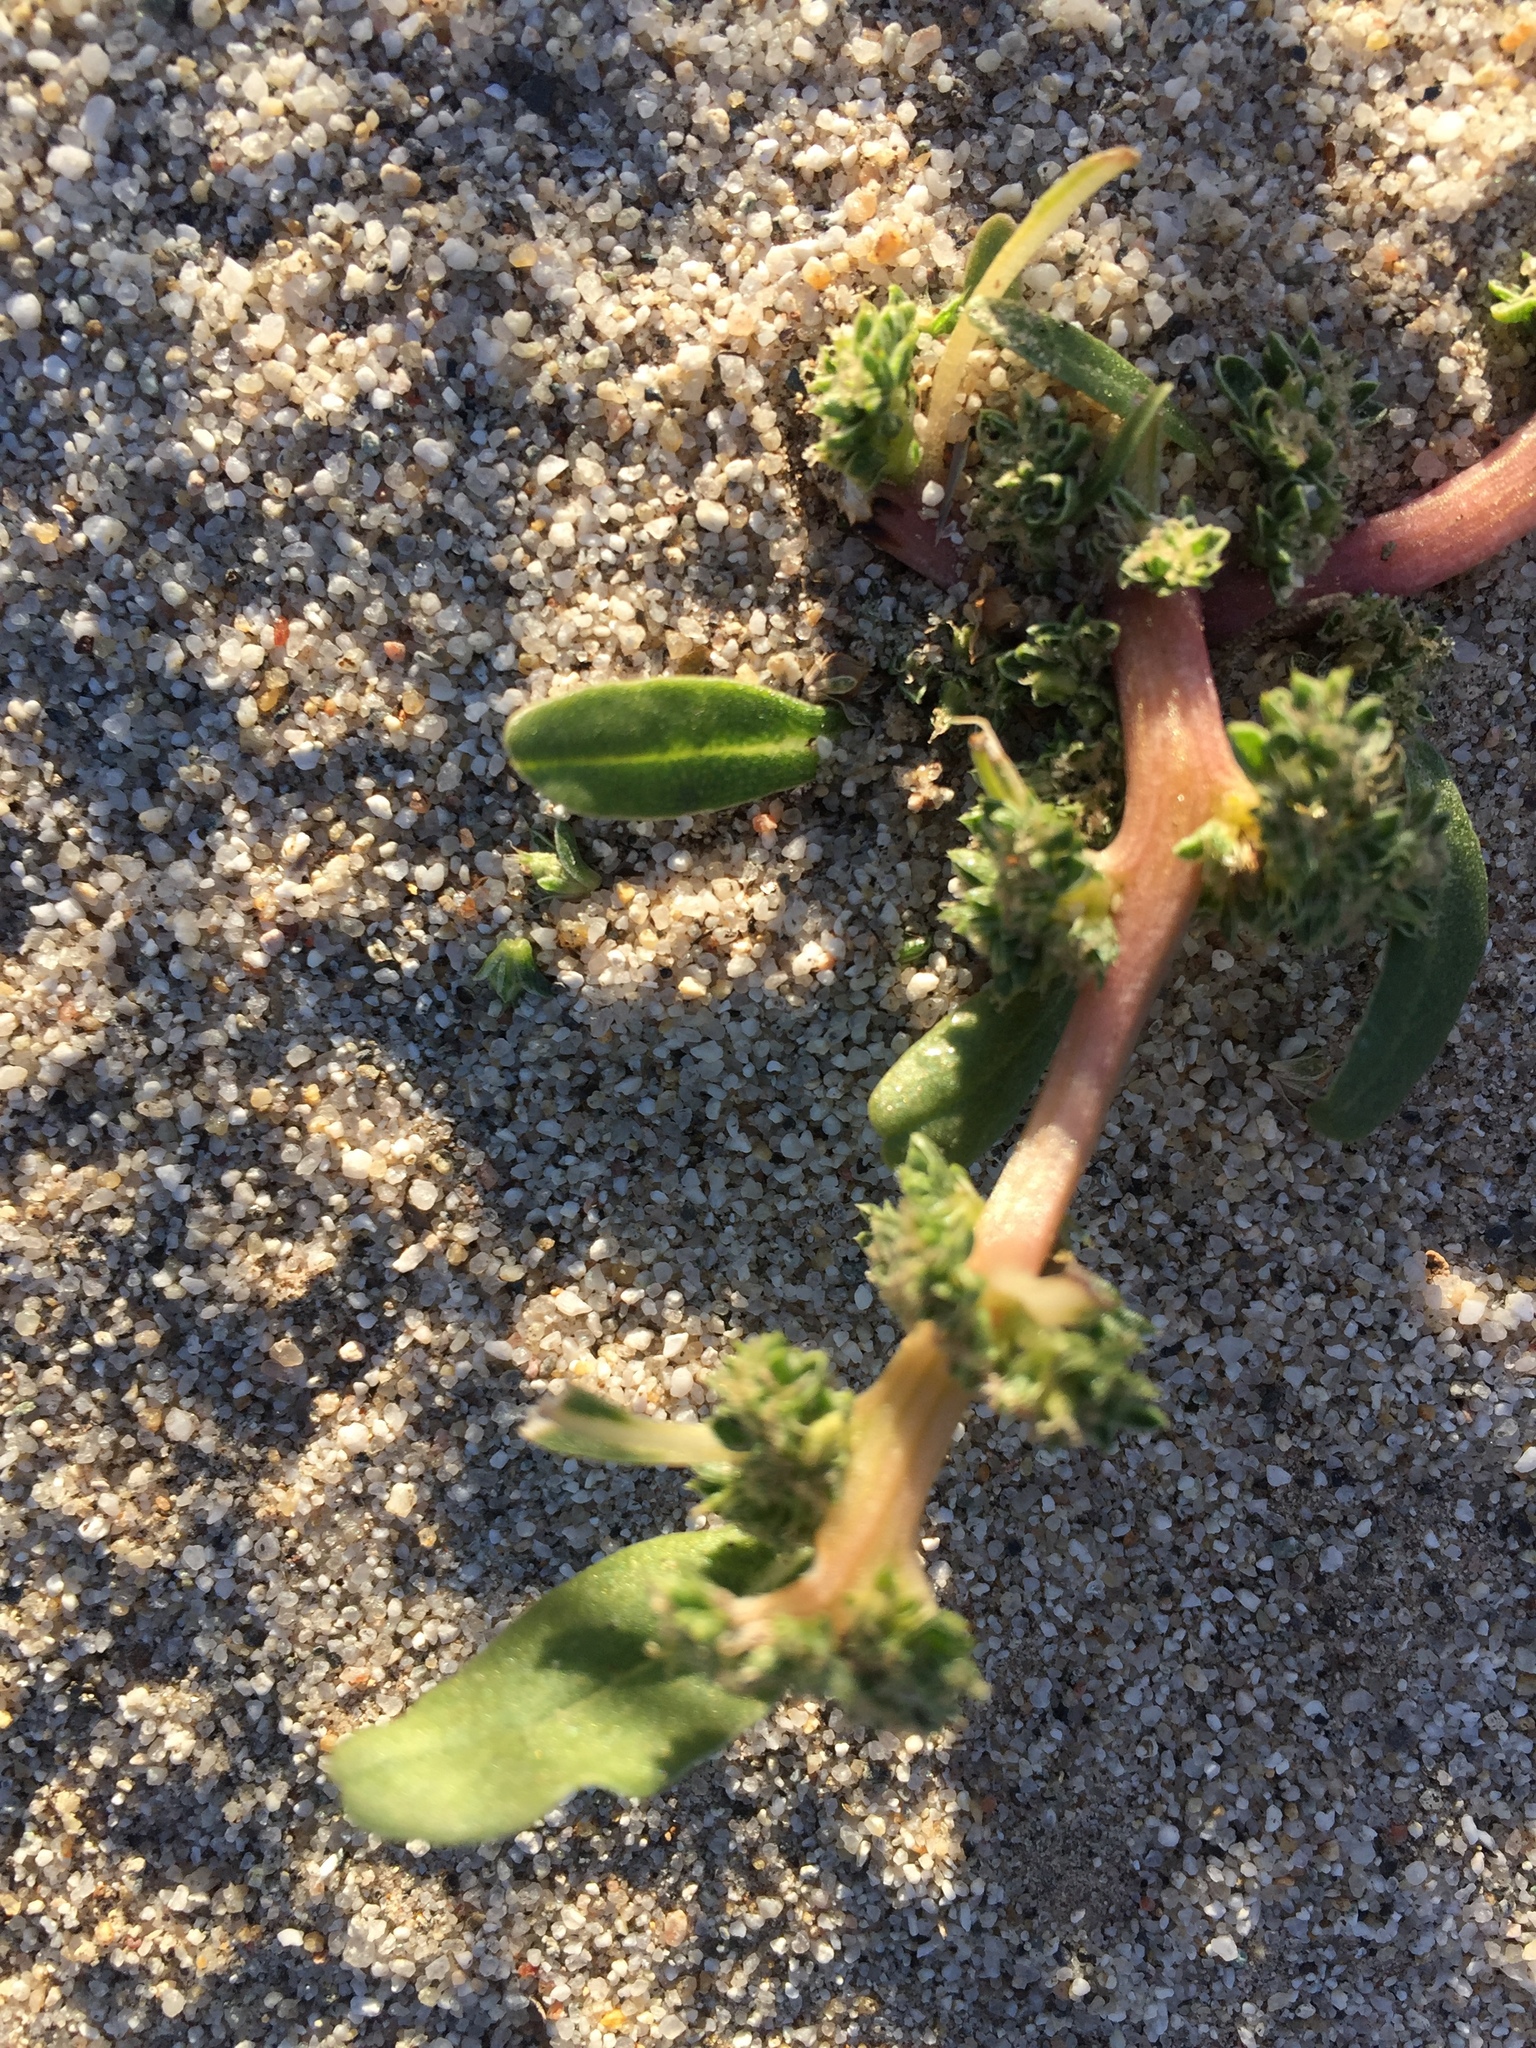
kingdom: Plantae
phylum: Tracheophyta
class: Magnoliopsida
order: Caryophyllales
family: Amaranthaceae
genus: Amaranthus
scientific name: Amaranthus blitoides
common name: Prostrate pigweed
